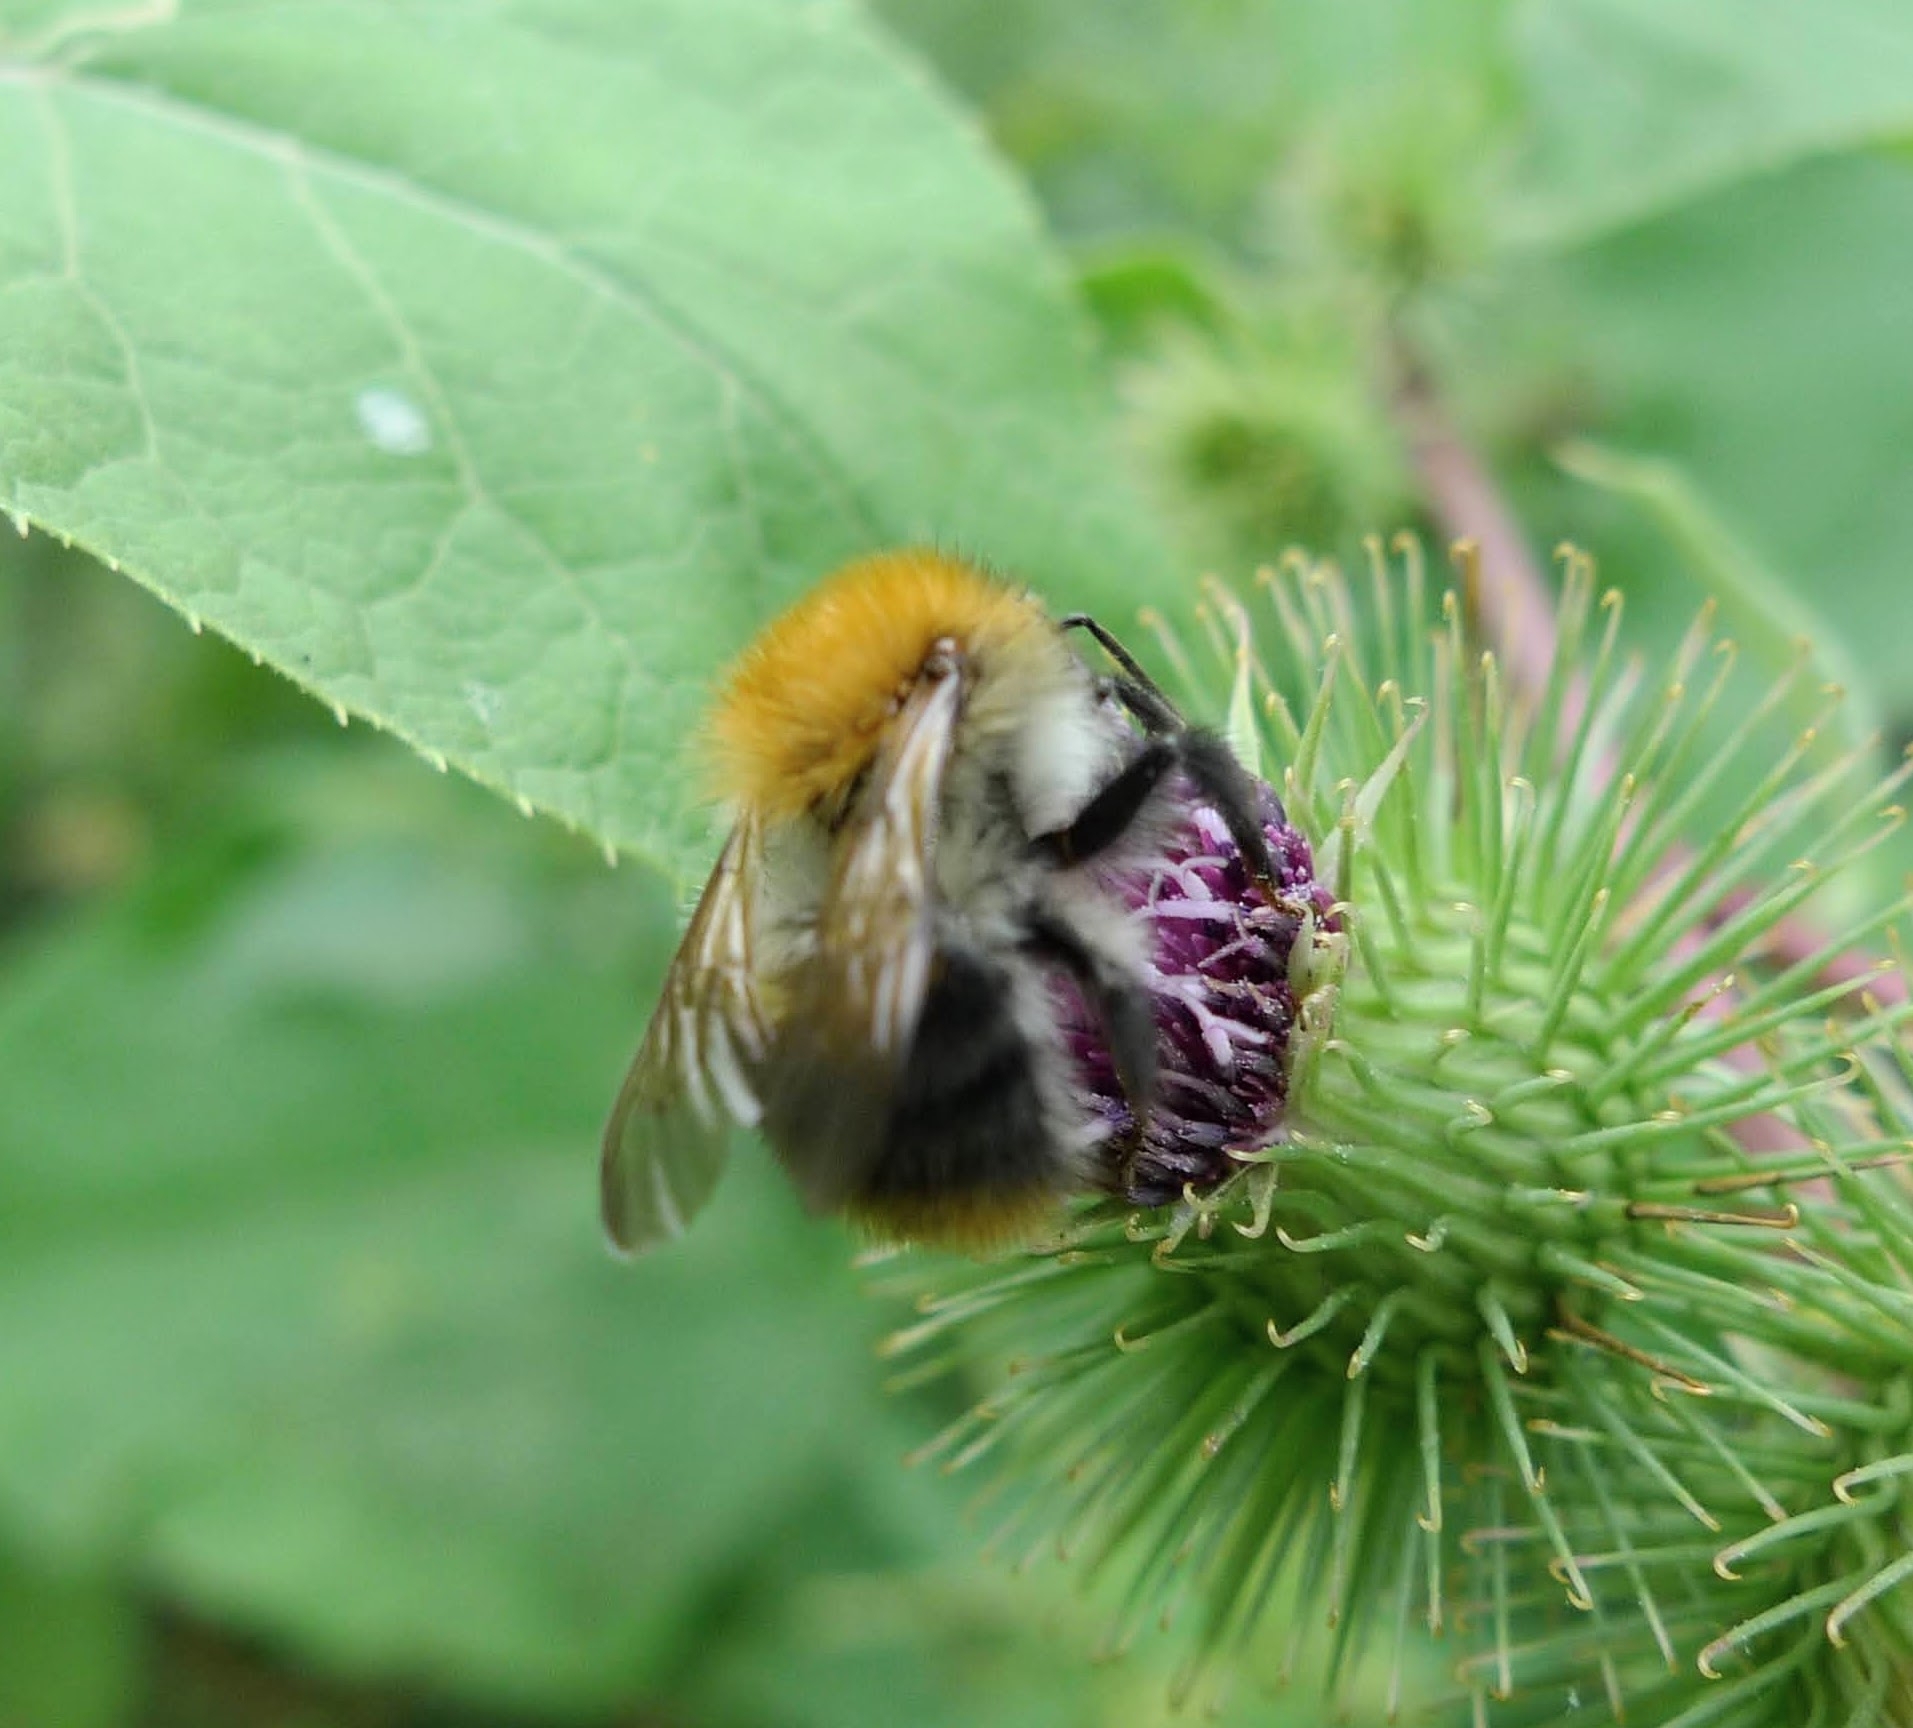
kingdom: Animalia
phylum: Arthropoda
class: Insecta
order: Hymenoptera
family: Apidae
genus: Bombus
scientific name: Bombus pascuorum
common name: Common carder bee
